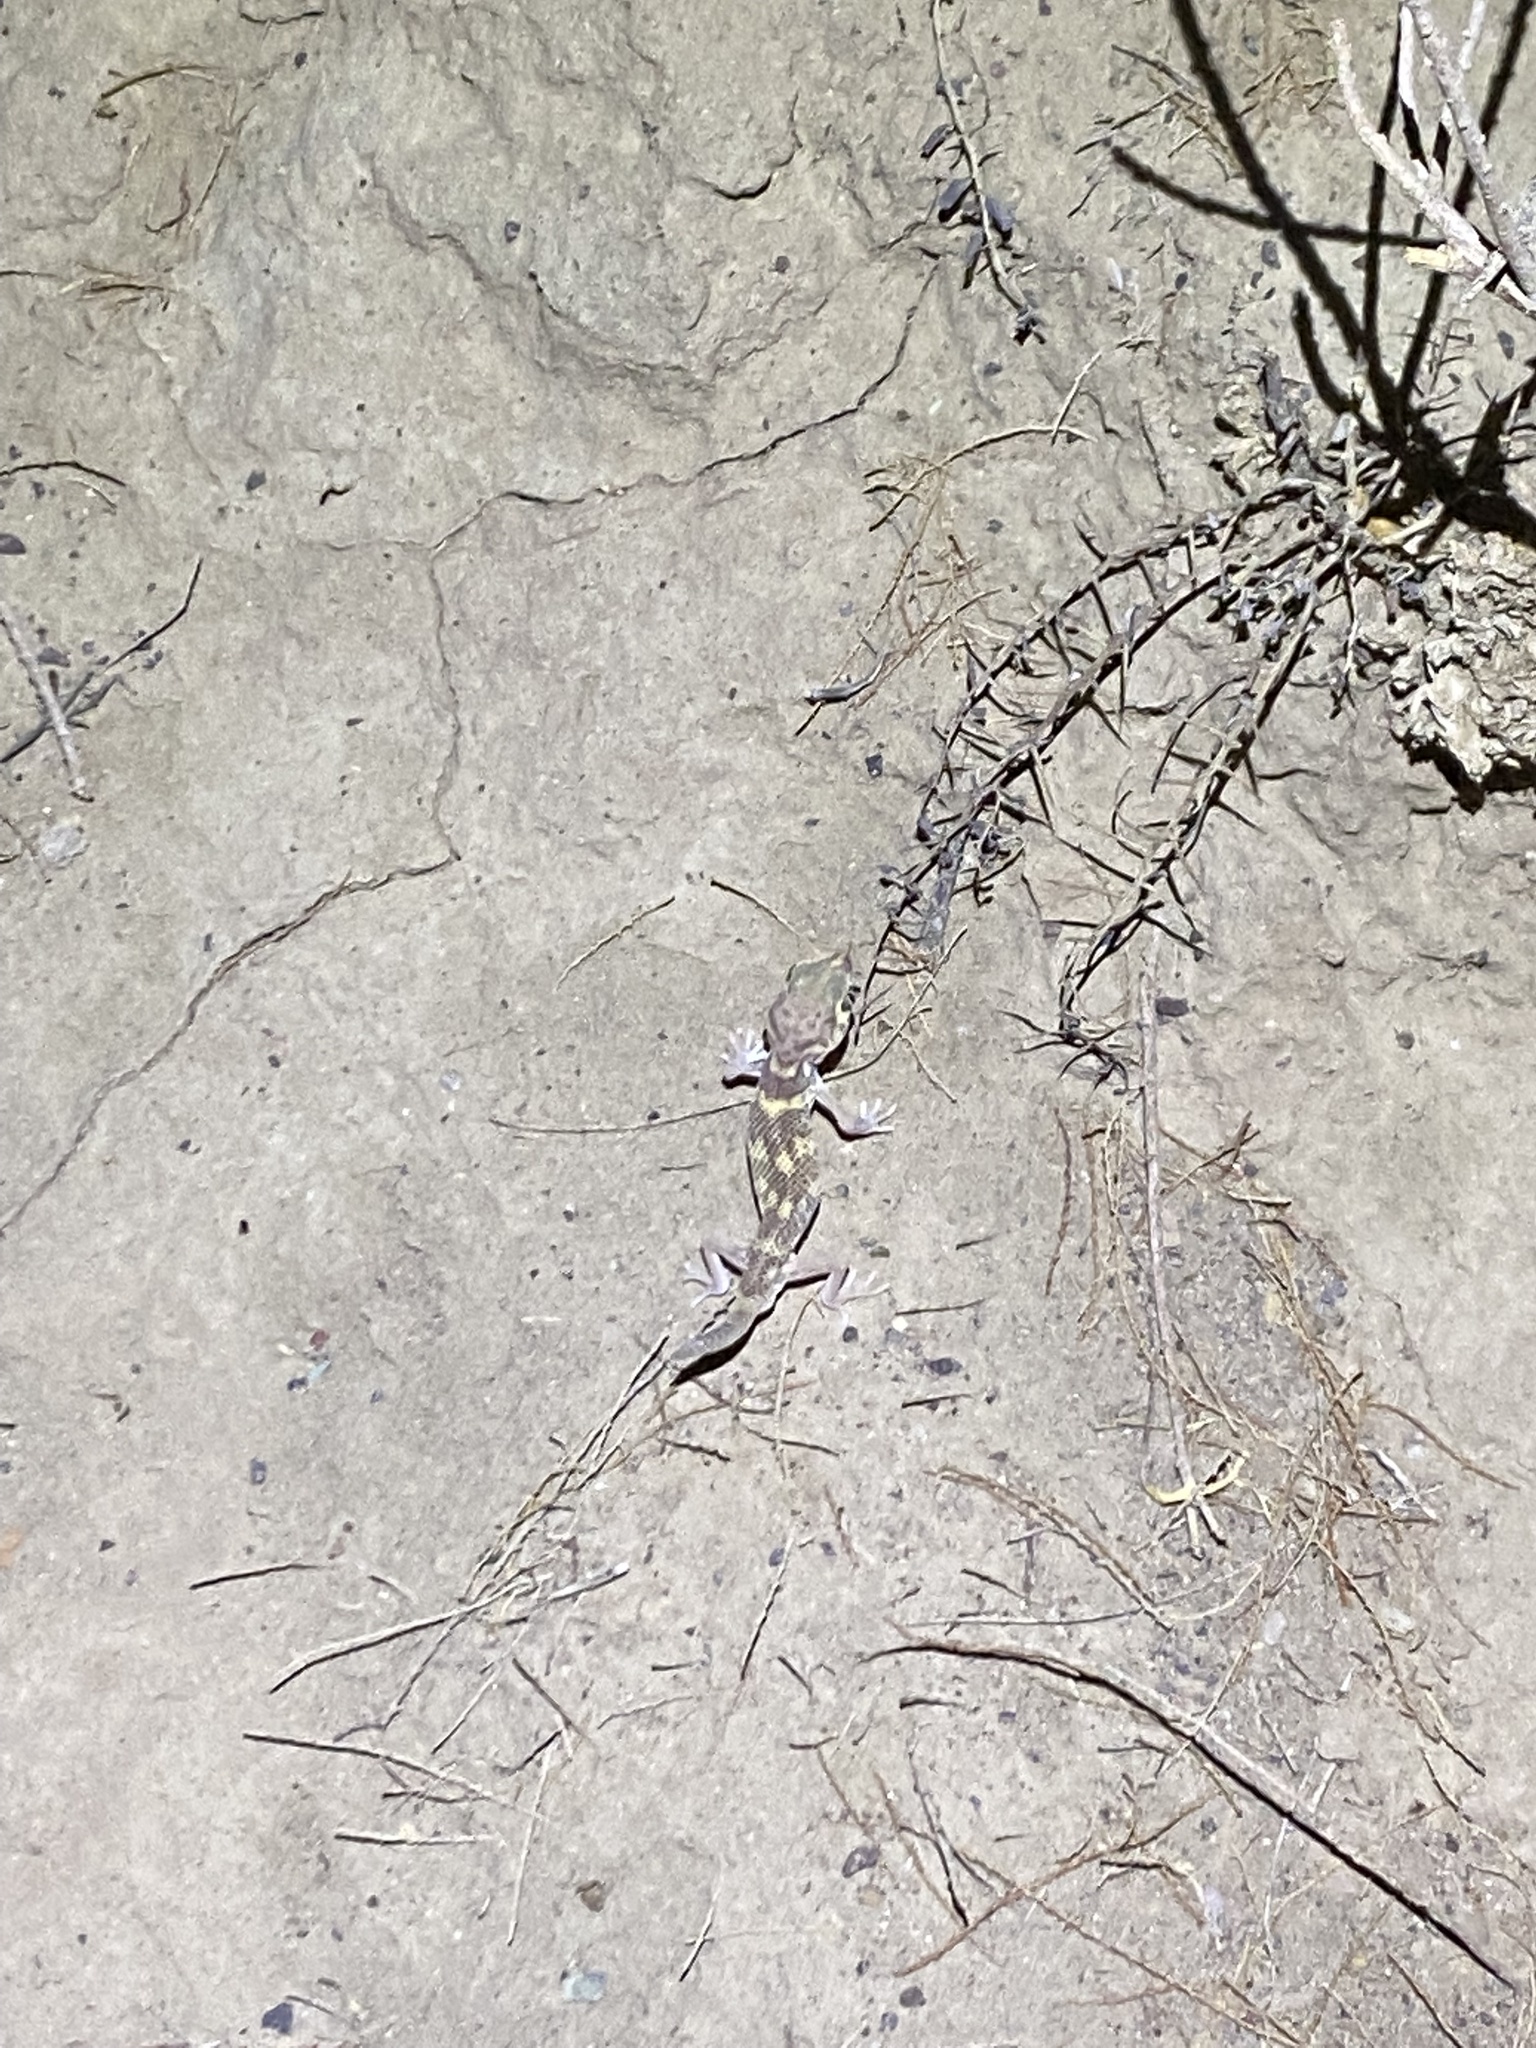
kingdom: Animalia
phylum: Chordata
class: Squamata
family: Sphaerodactylidae
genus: Teratoscincus
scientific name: Teratoscincus bedriagai
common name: Bedriaga's plate-tailed gecko
